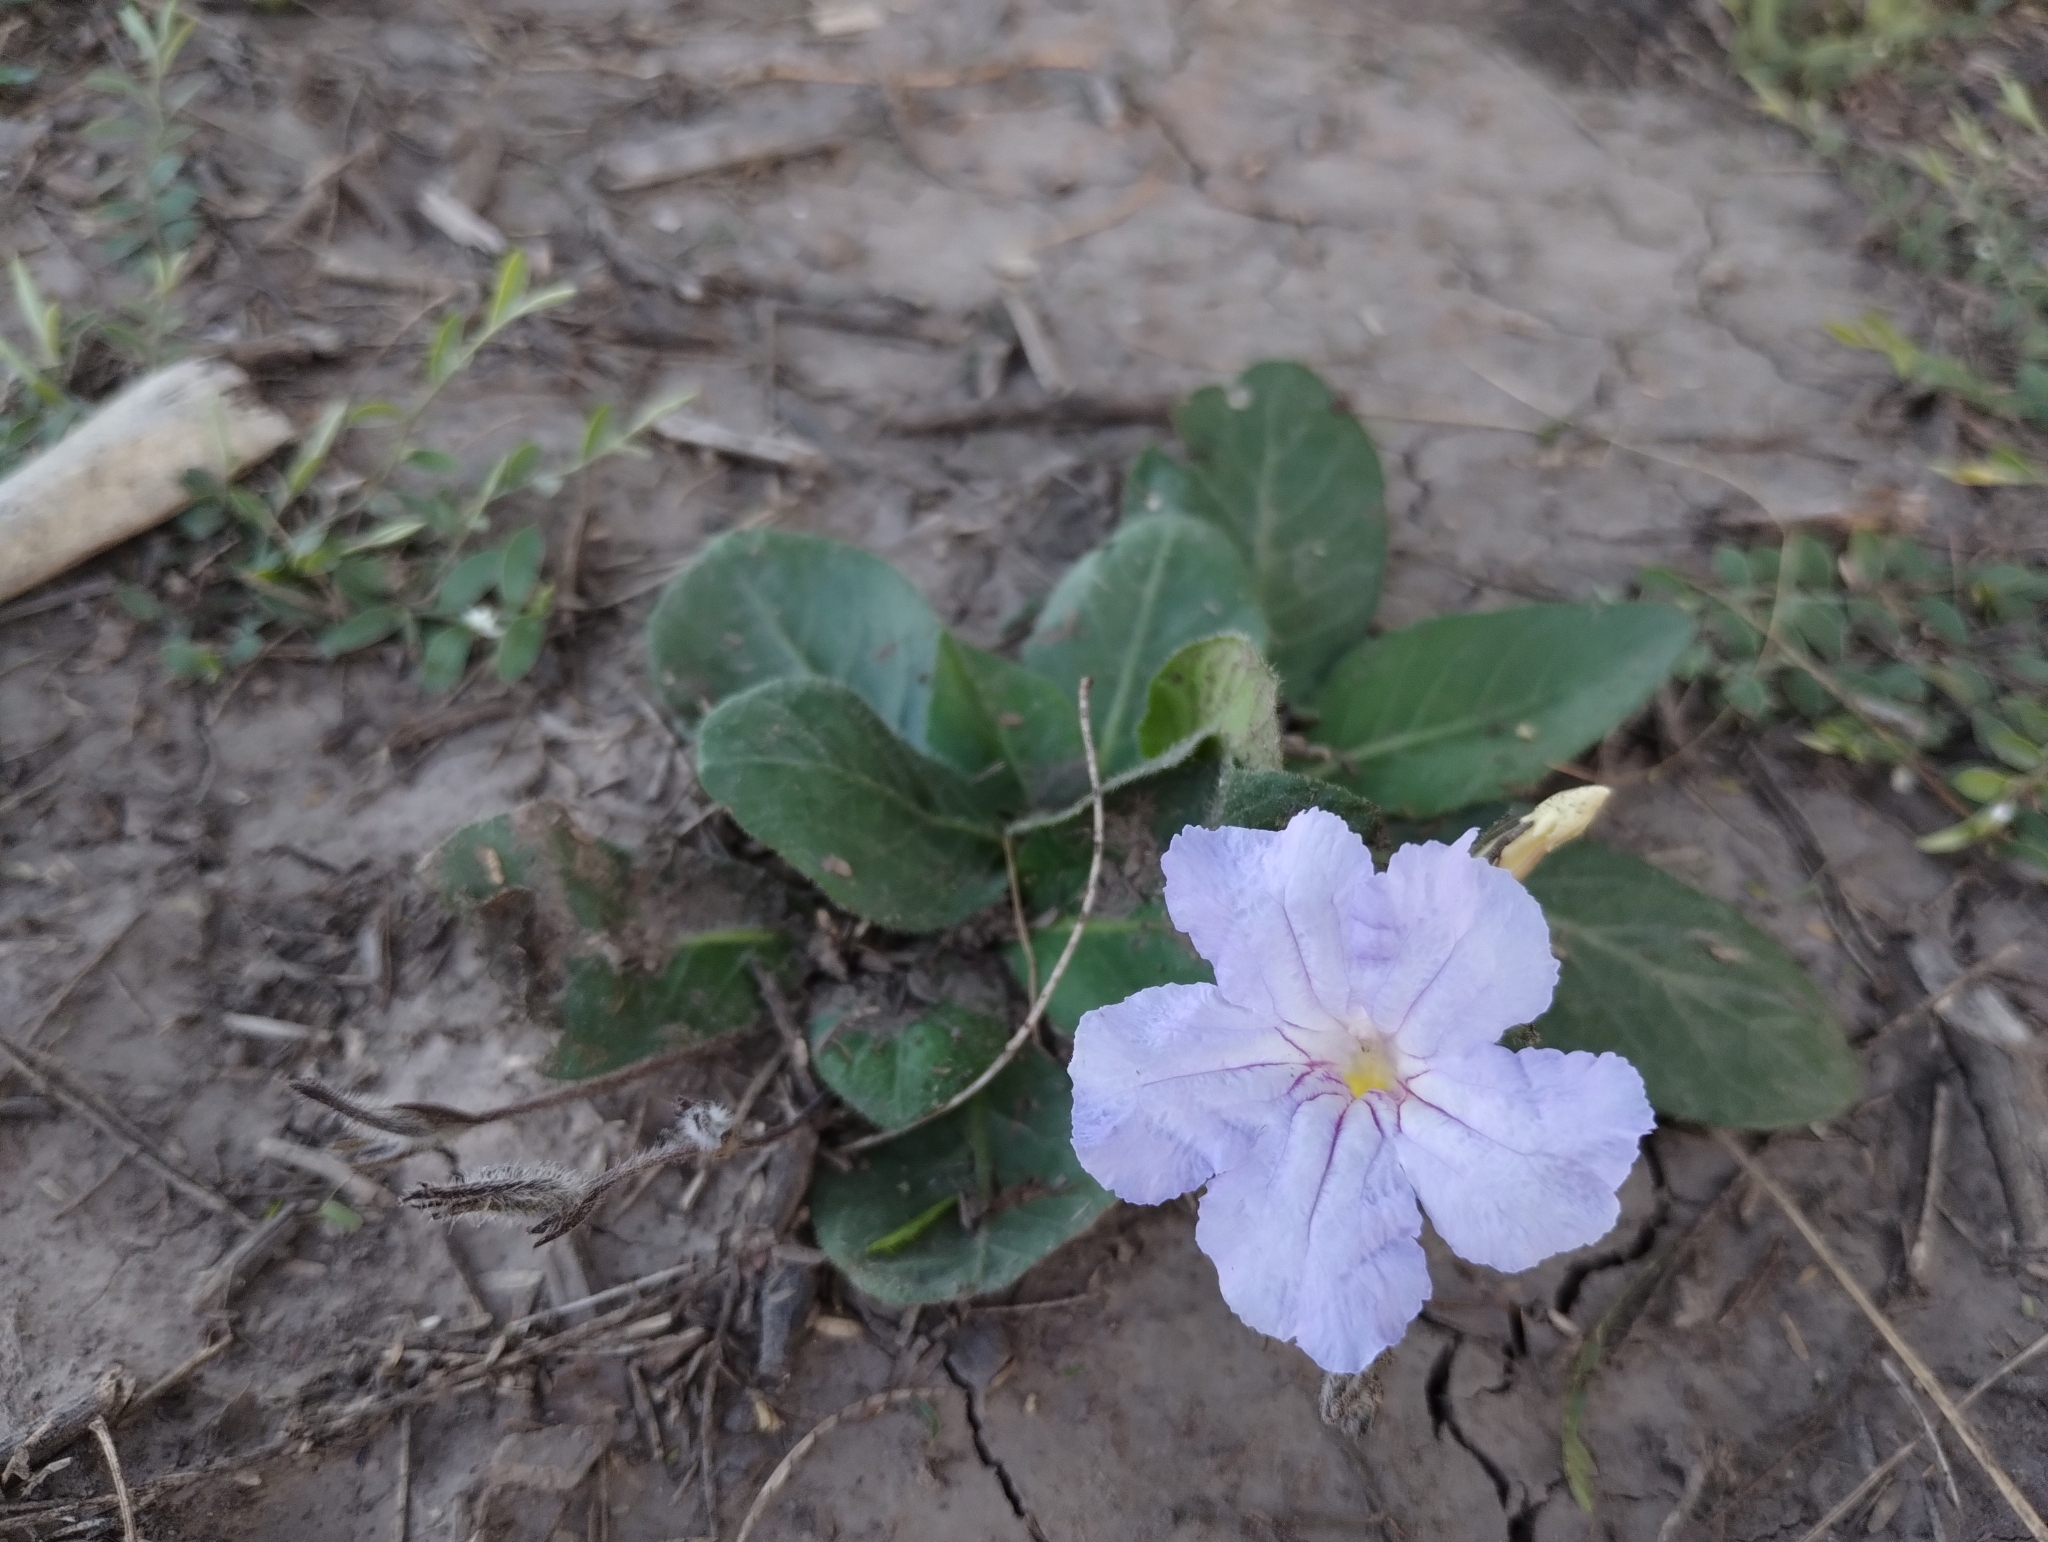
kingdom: Plantae
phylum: Tracheophyta
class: Magnoliopsida
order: Lamiales
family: Acanthaceae
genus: Ruellia
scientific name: Ruellia hygrophila
